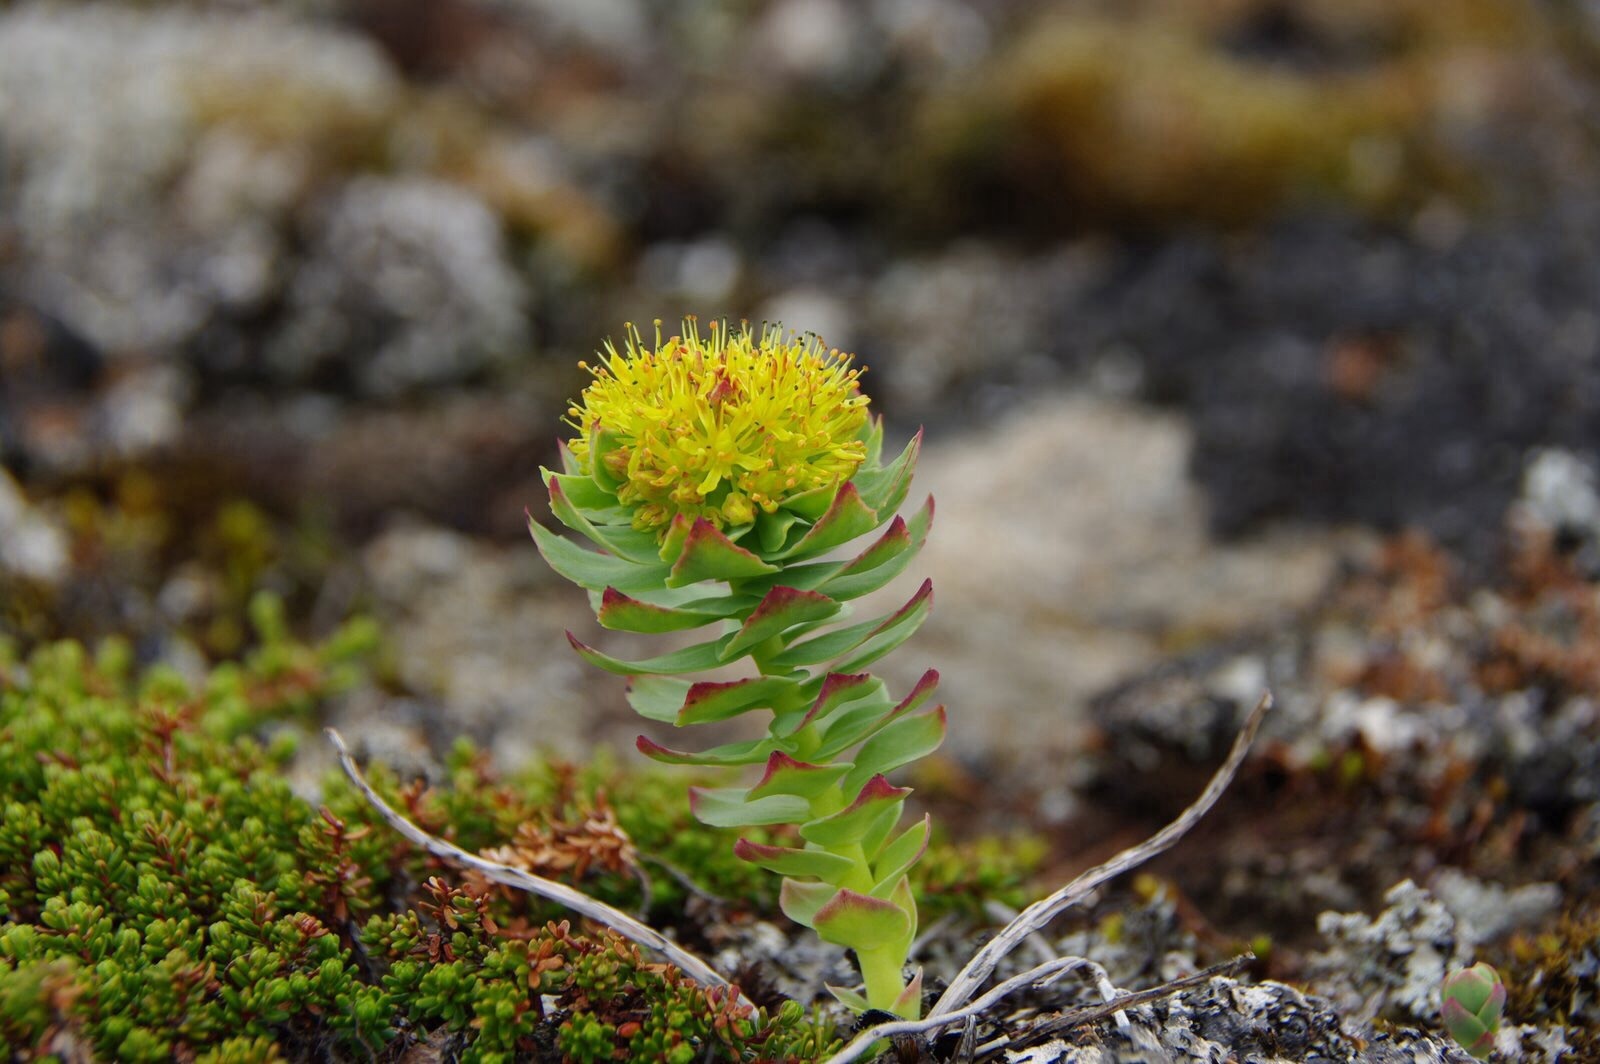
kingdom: Plantae
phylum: Tracheophyta
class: Magnoliopsida
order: Saxifragales
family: Crassulaceae
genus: Rhodiola
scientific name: Rhodiola rosea
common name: Roseroot
